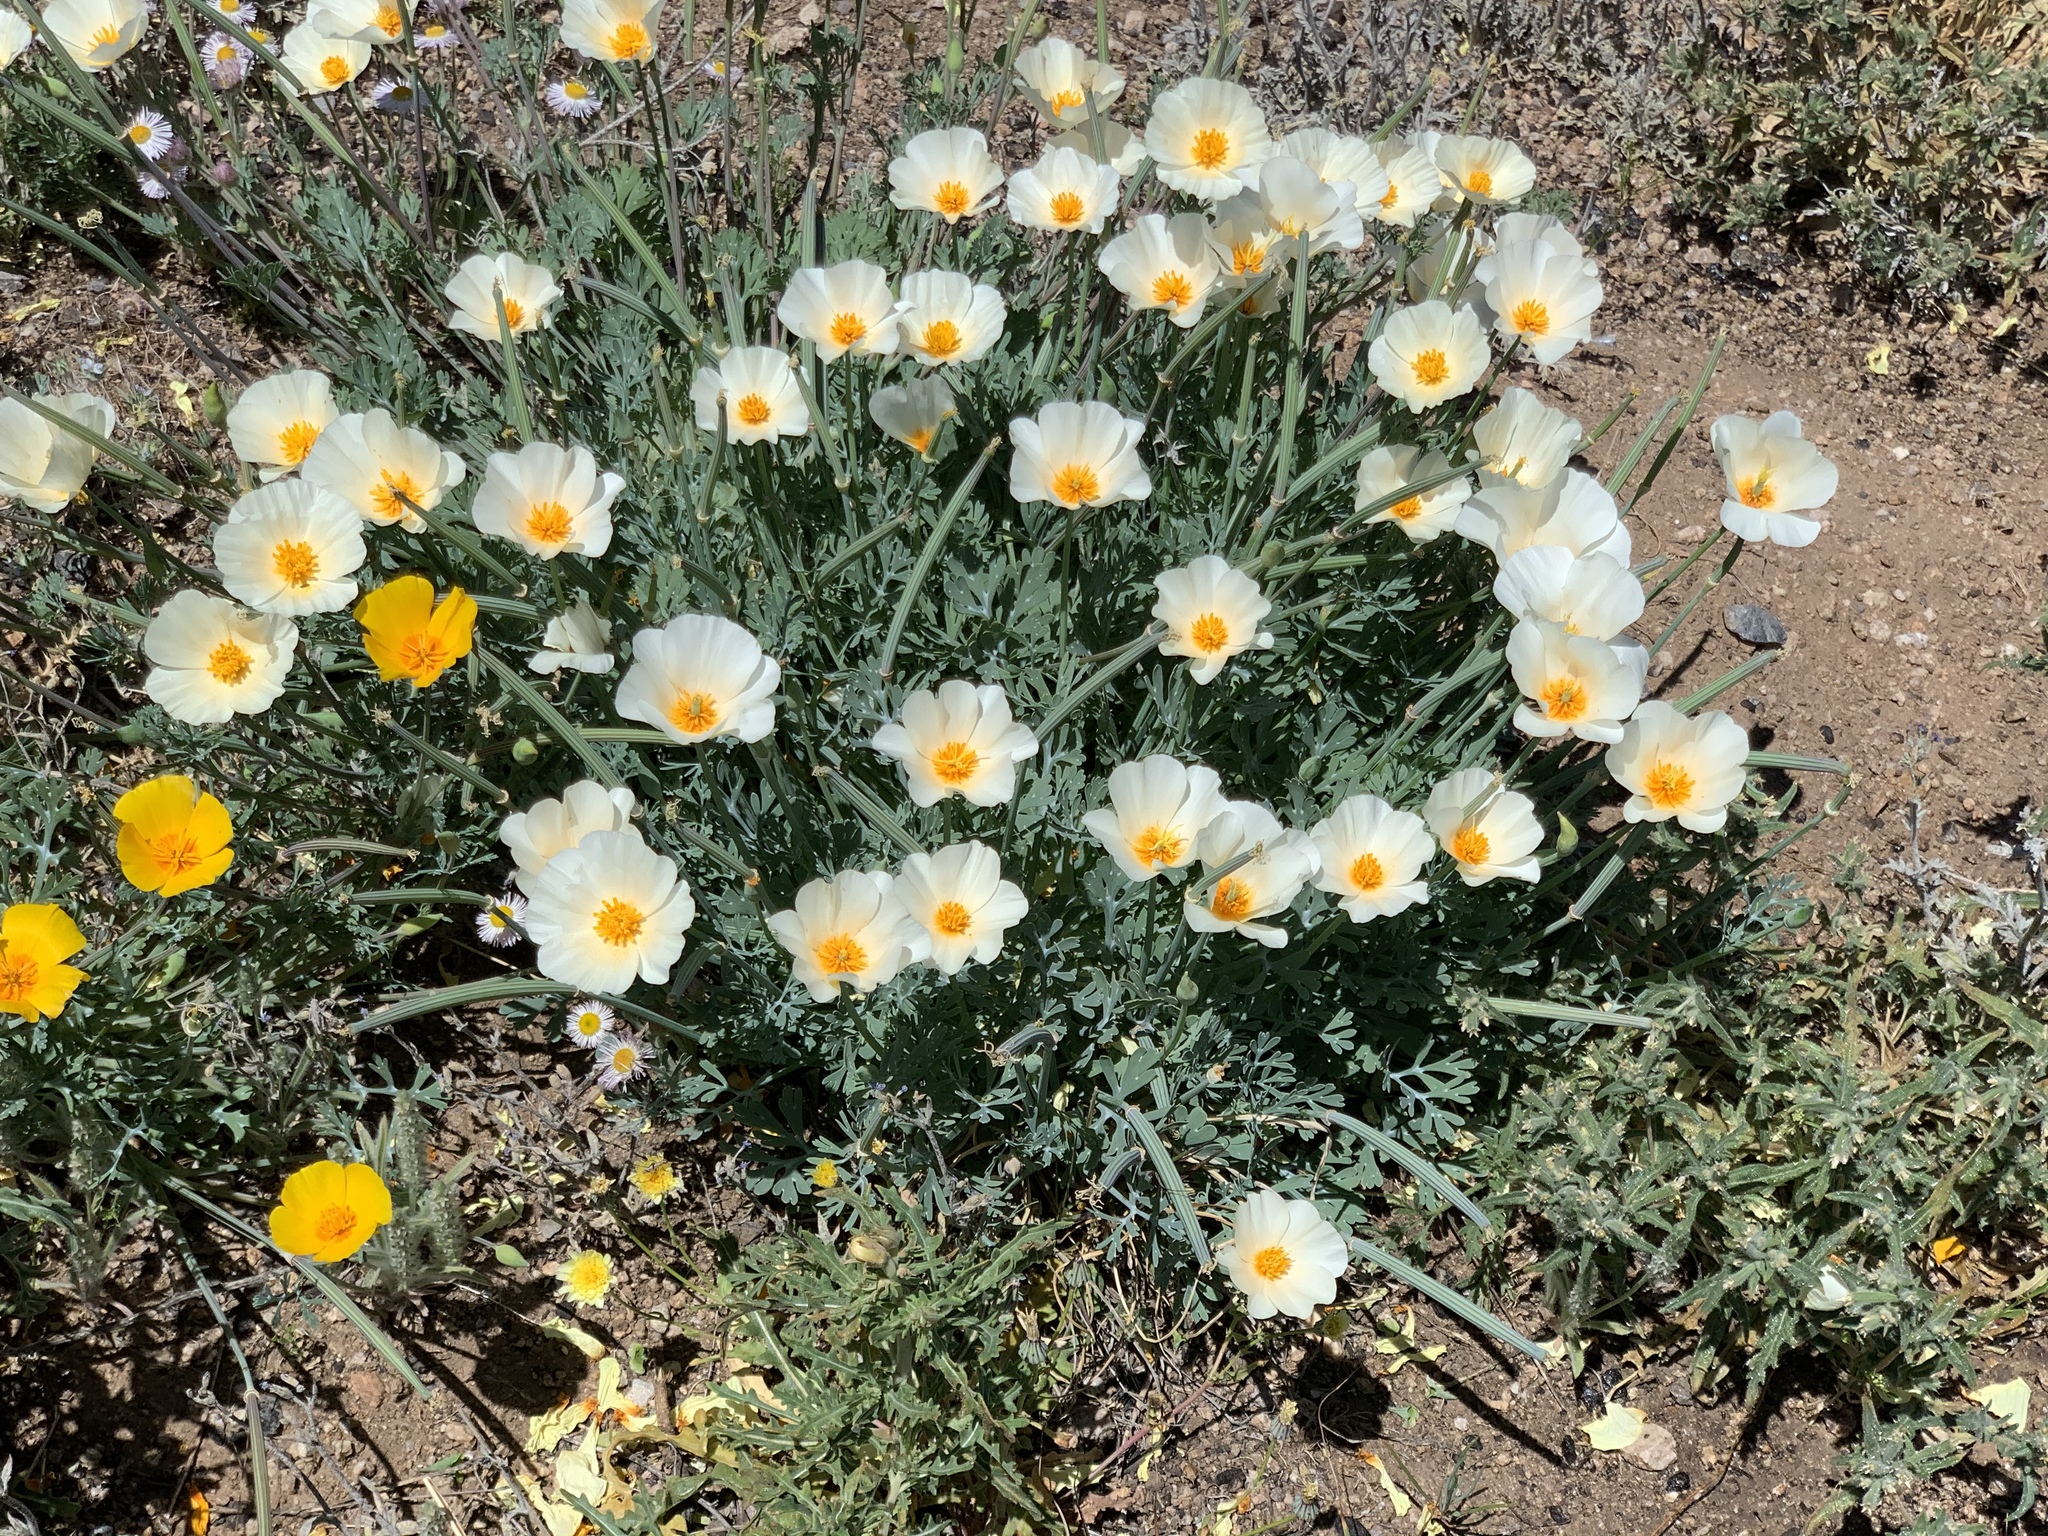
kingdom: Plantae
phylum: Tracheophyta
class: Magnoliopsida
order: Ranunculales
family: Papaveraceae
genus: Eschscholzia
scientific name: Eschscholzia californica
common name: California poppy
